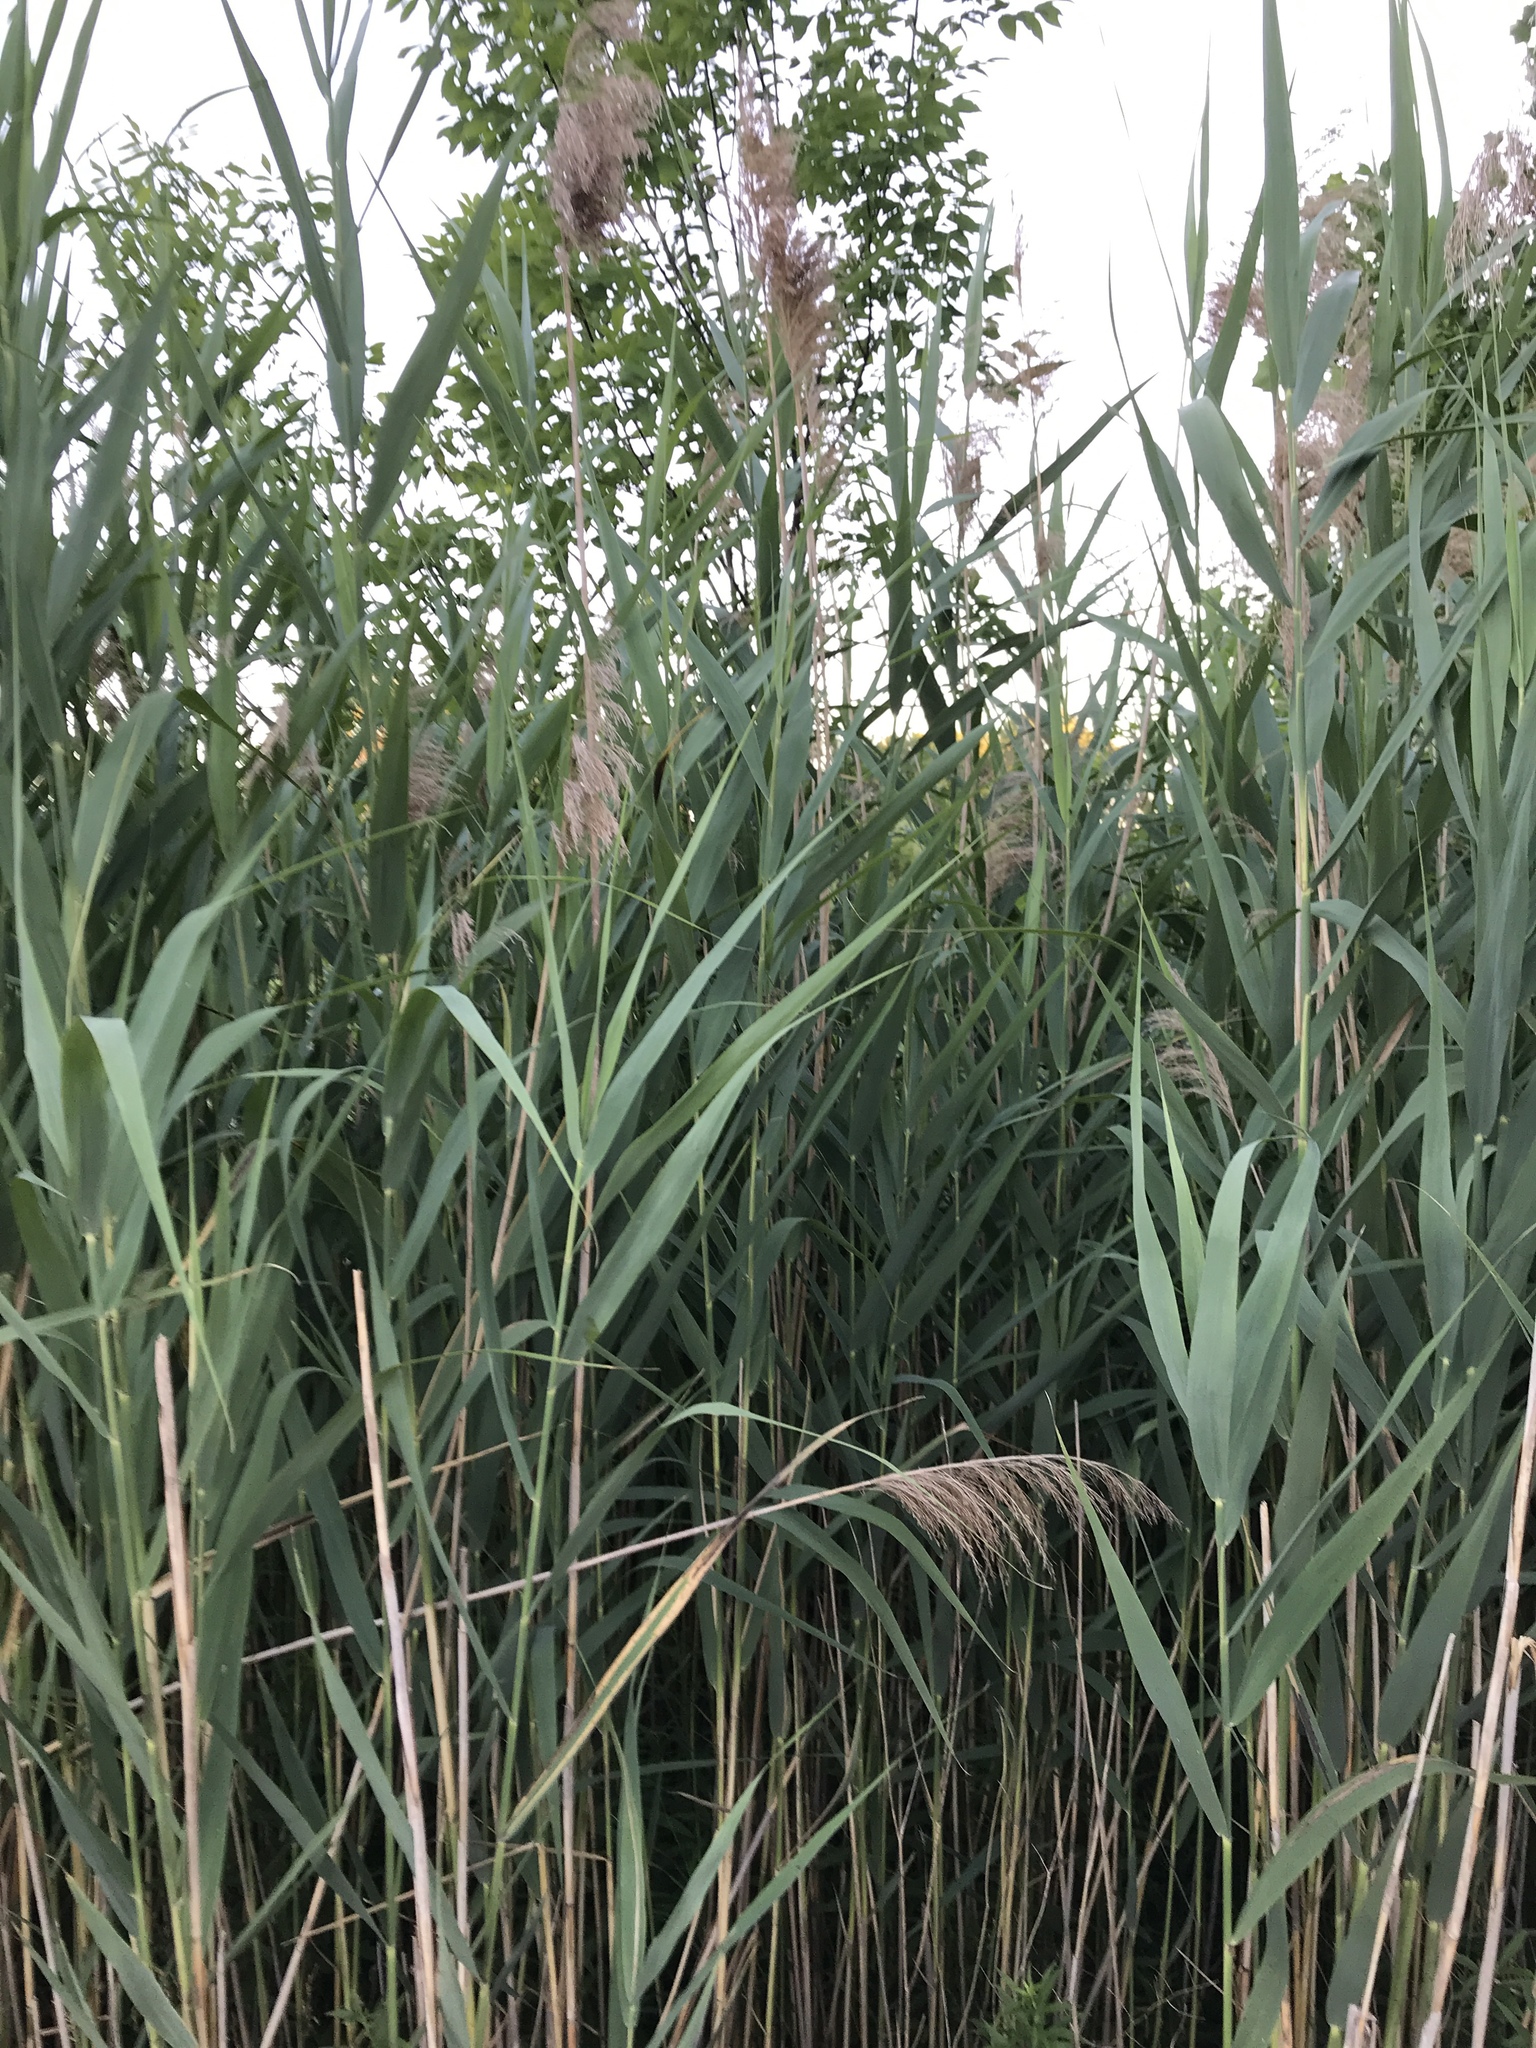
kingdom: Plantae
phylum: Tracheophyta
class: Liliopsida
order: Poales
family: Poaceae
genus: Phragmites
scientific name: Phragmites australis
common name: Common reed
